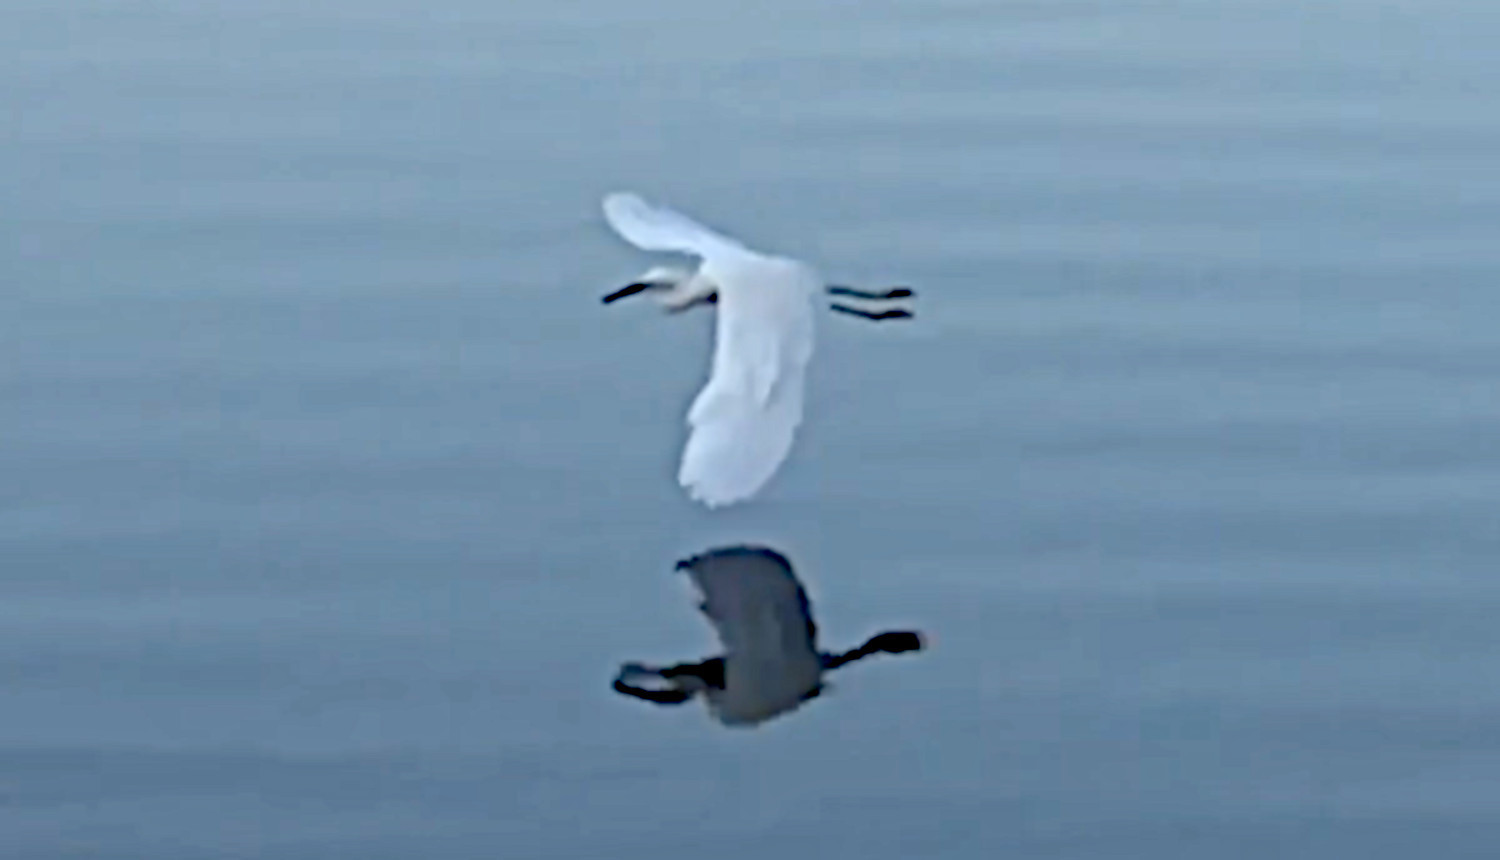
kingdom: Animalia
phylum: Chordata
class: Aves
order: Pelecaniformes
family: Ardeidae
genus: Egretta
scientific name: Egretta thula
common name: Snowy egret
